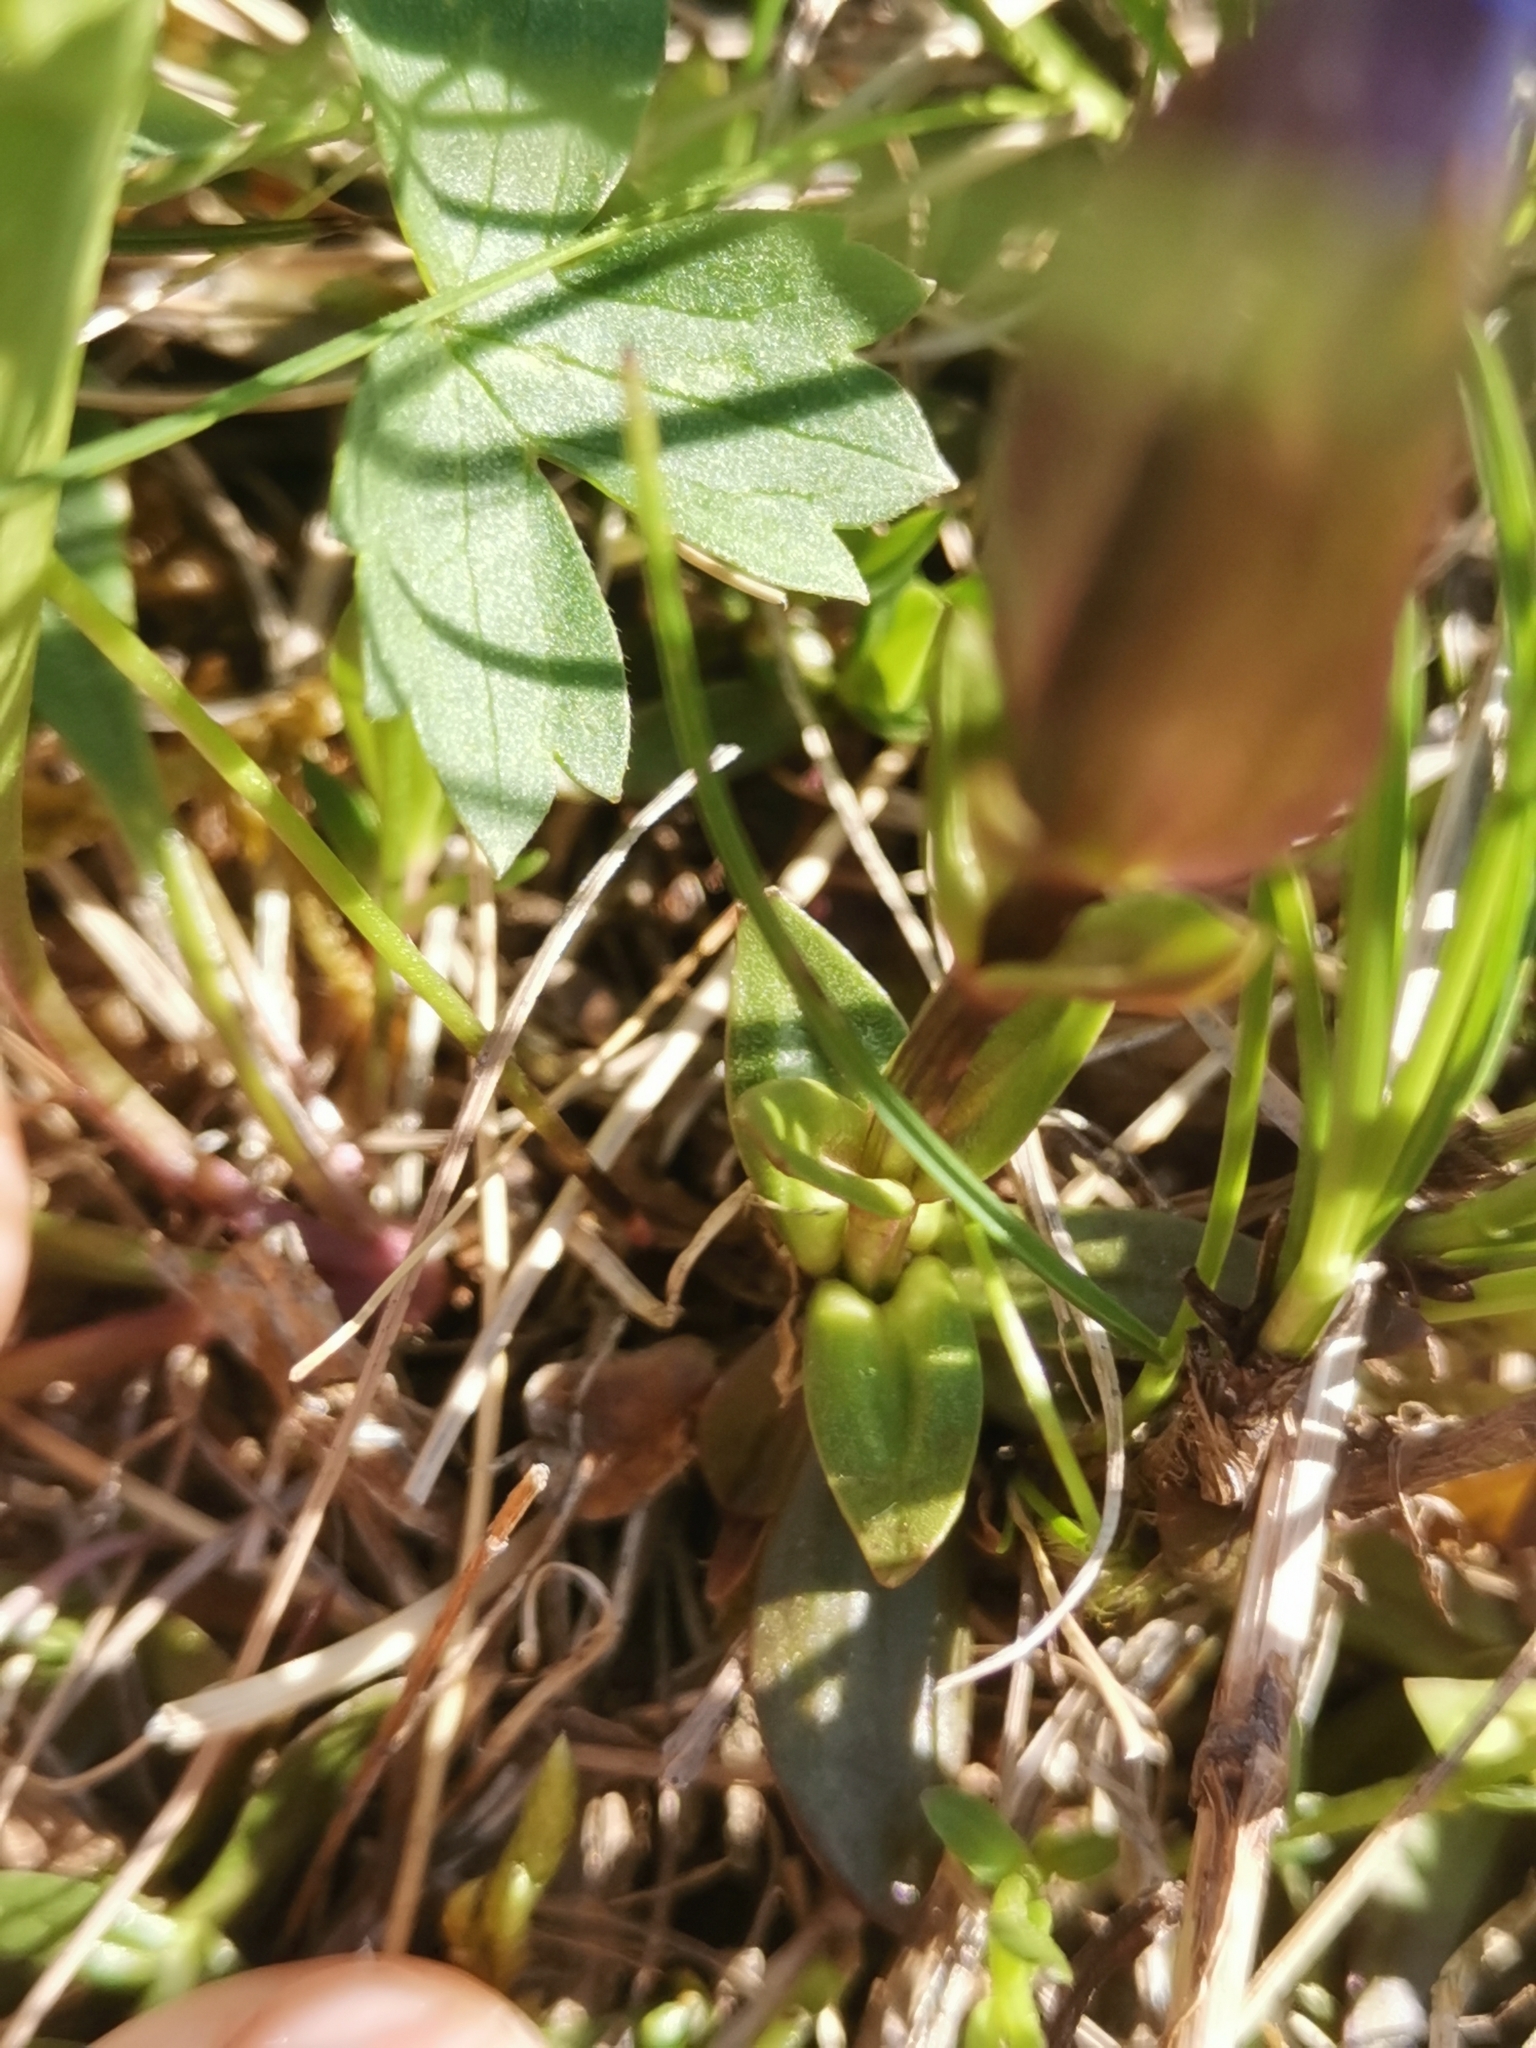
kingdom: Plantae
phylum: Tracheophyta
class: Magnoliopsida
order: Gentianales
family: Gentianaceae
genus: Gentiana
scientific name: Gentiana verna
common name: Spring gentian
